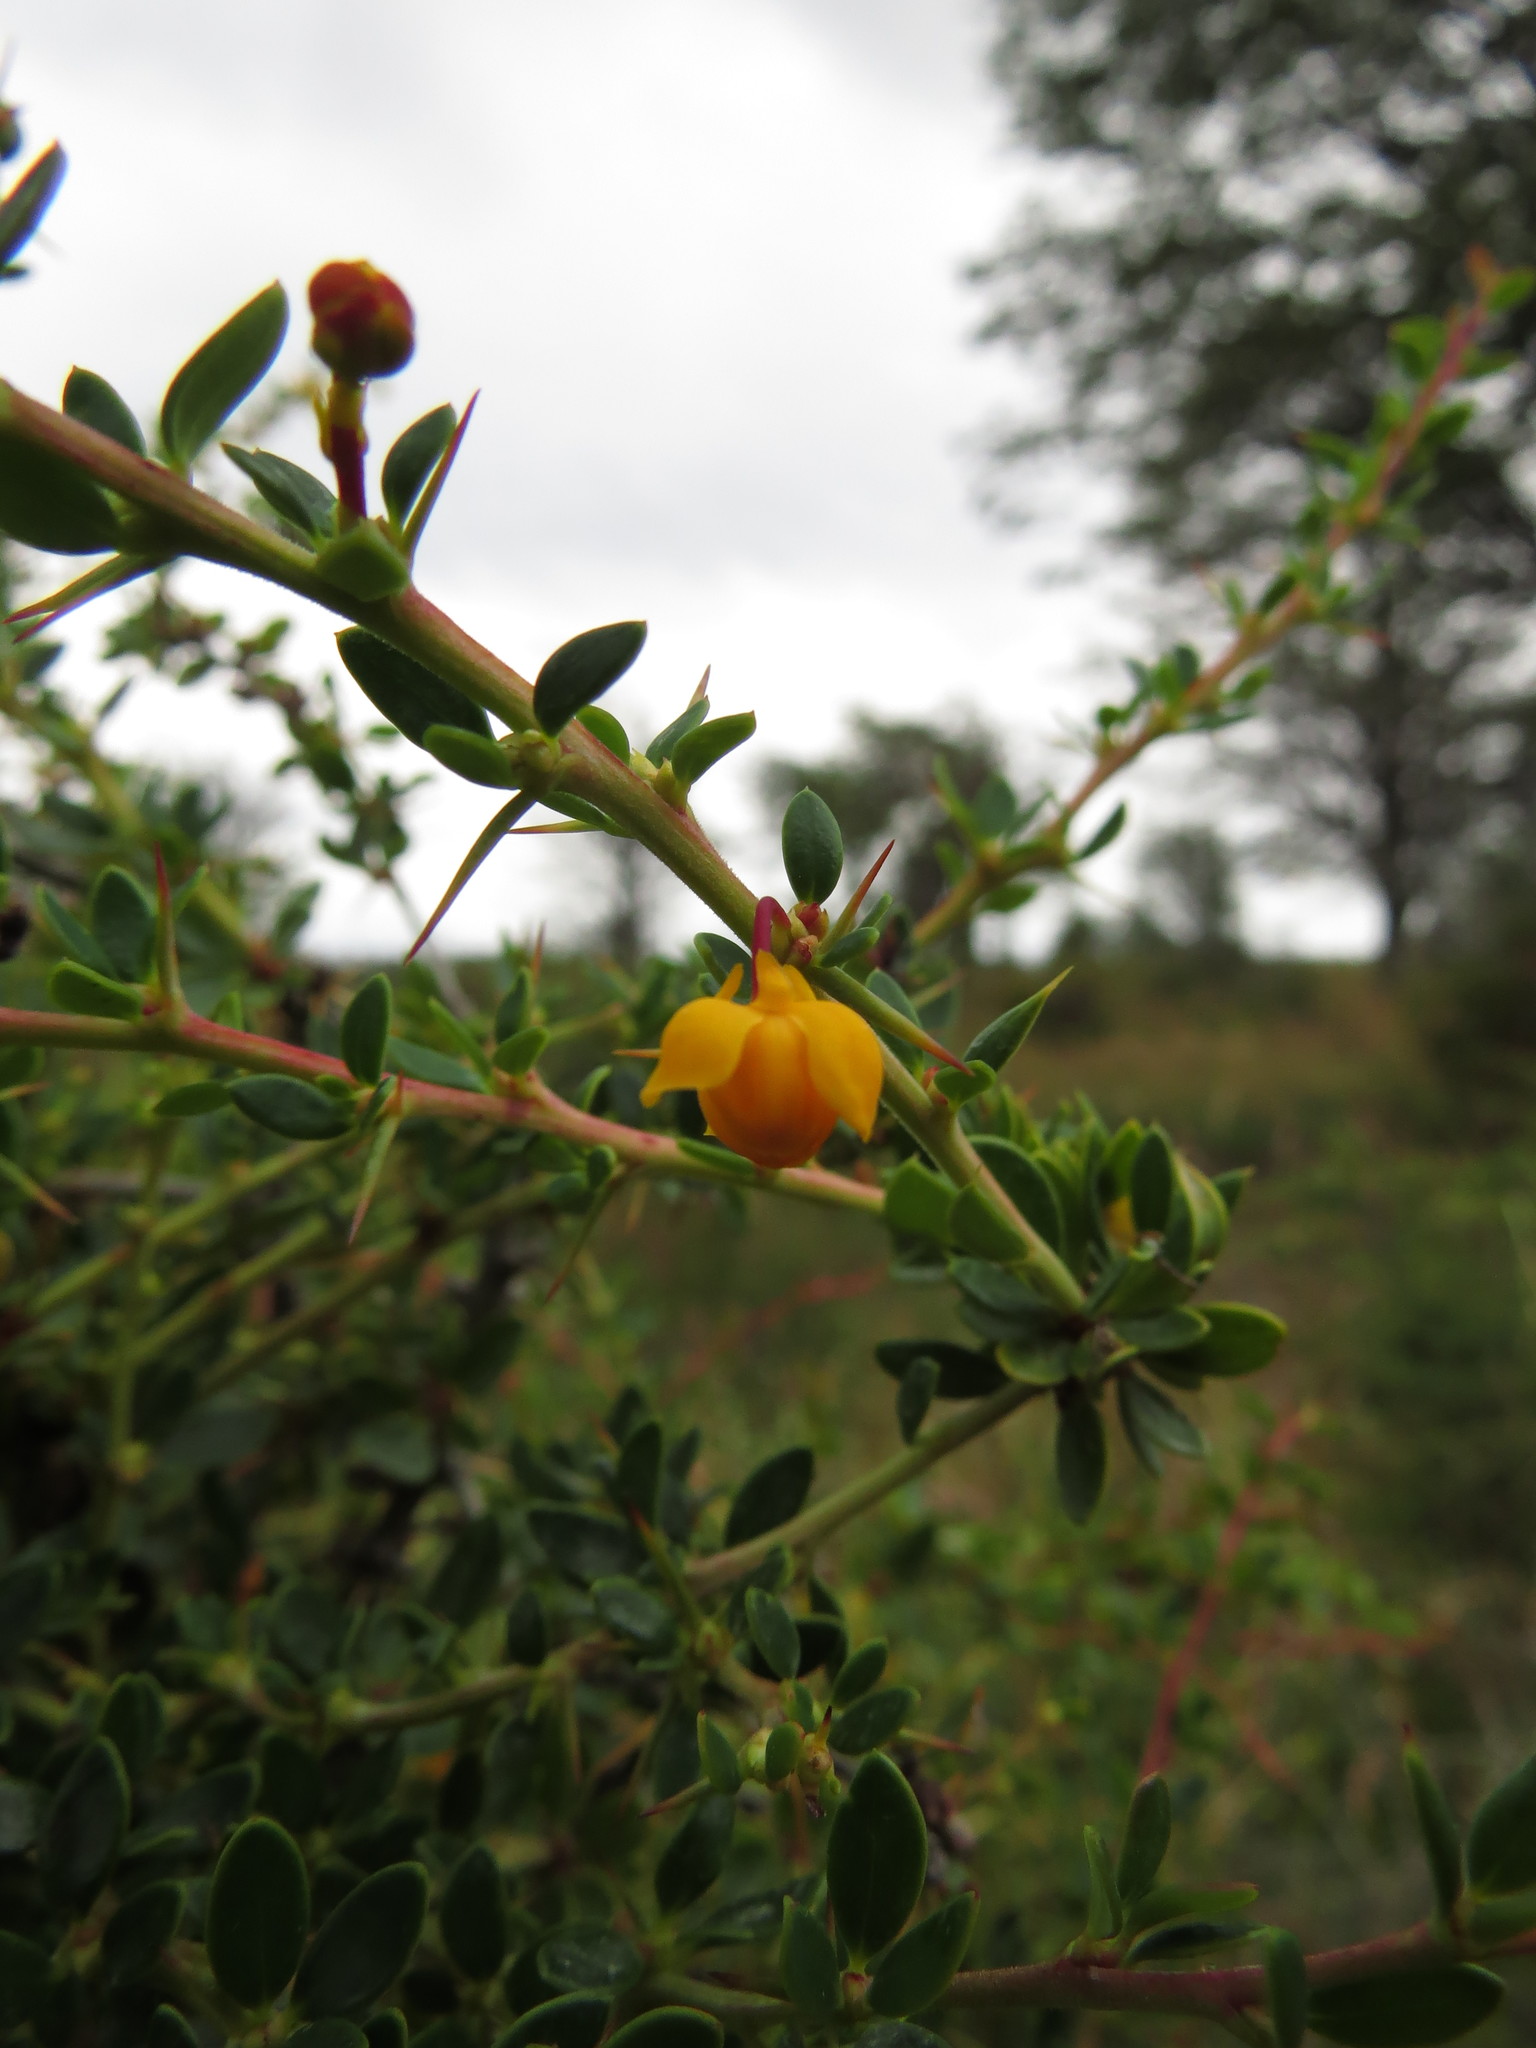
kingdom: Plantae
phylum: Tracheophyta
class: Magnoliopsida
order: Ranunculales
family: Berberidaceae
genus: Berberis
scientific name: Berberis microphylla
